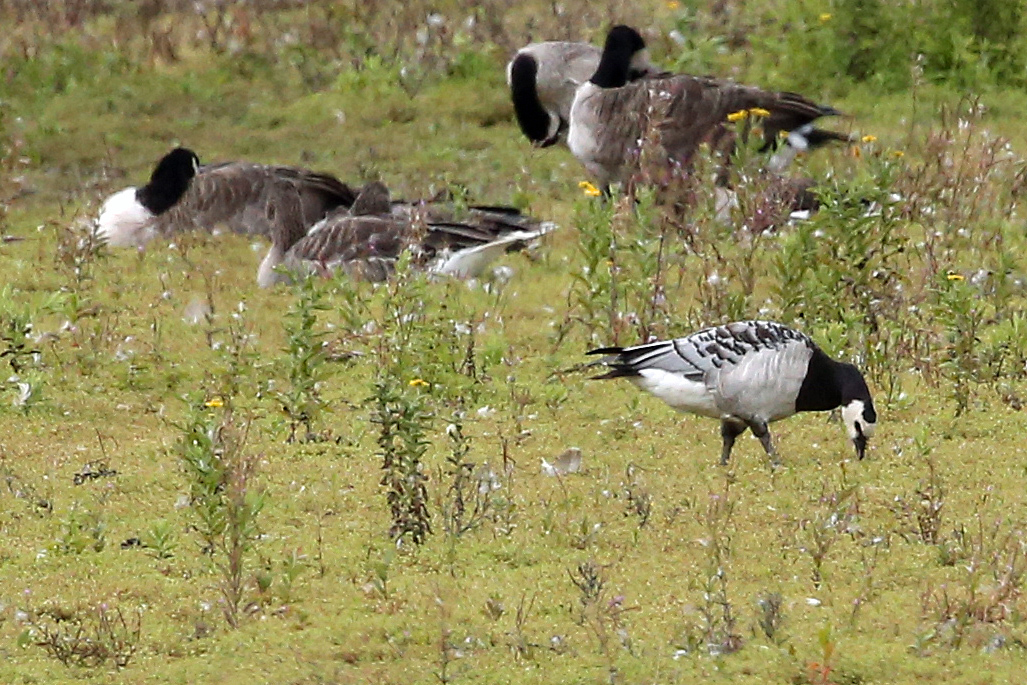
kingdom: Animalia
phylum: Chordata
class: Aves
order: Anseriformes
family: Anatidae
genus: Branta
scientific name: Branta leucopsis
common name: Barnacle goose
